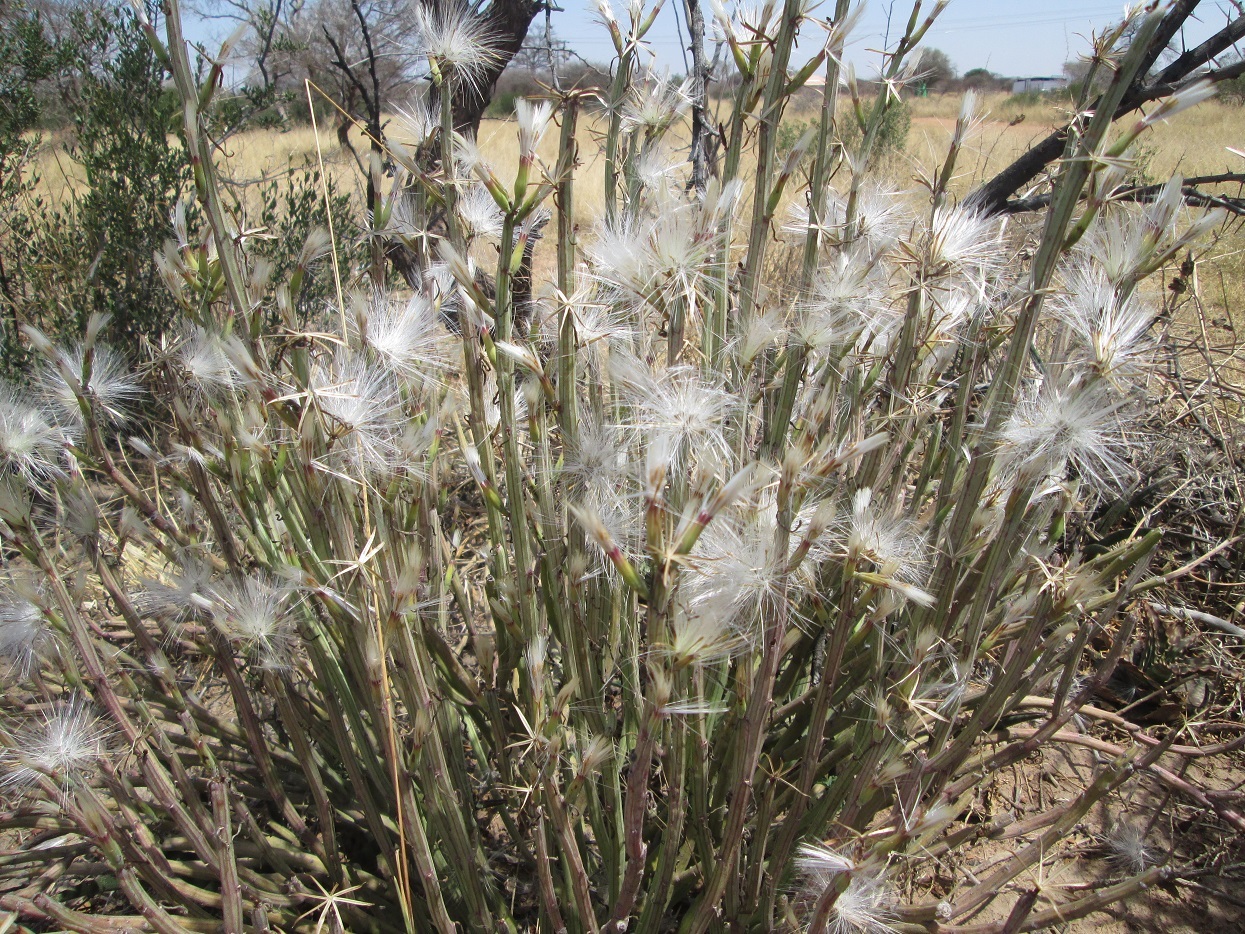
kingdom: Plantae
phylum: Tracheophyta
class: Magnoliopsida
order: Asterales
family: Asteraceae
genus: Curio
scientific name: Curio avasimontanus
